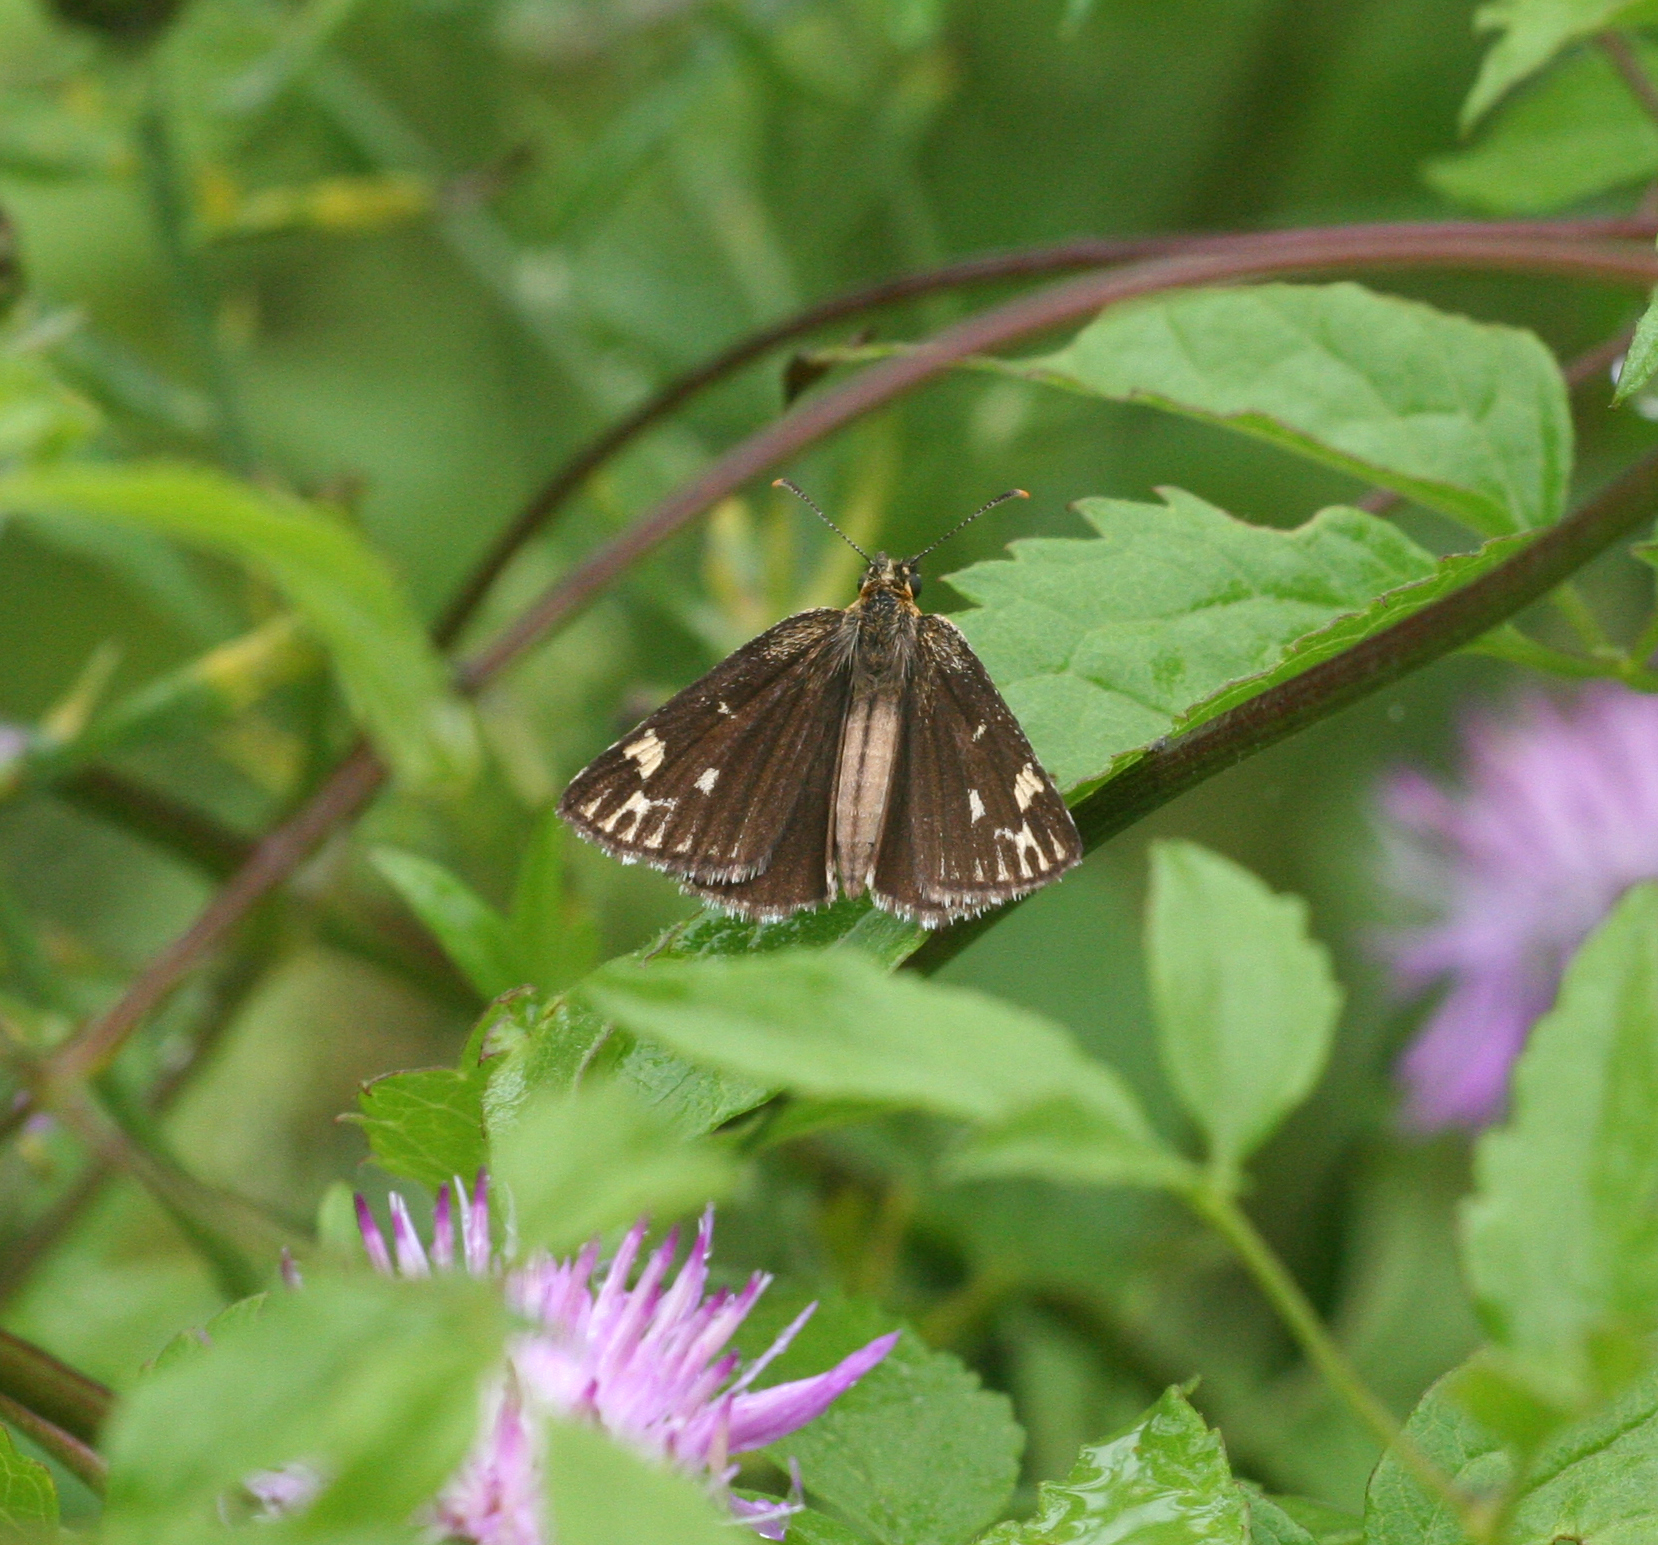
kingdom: Animalia
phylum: Arthropoda
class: Insecta
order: Lepidoptera
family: Hesperiidae
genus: Heteropterus
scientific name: Heteropterus morpheus
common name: Large chequered skipper
